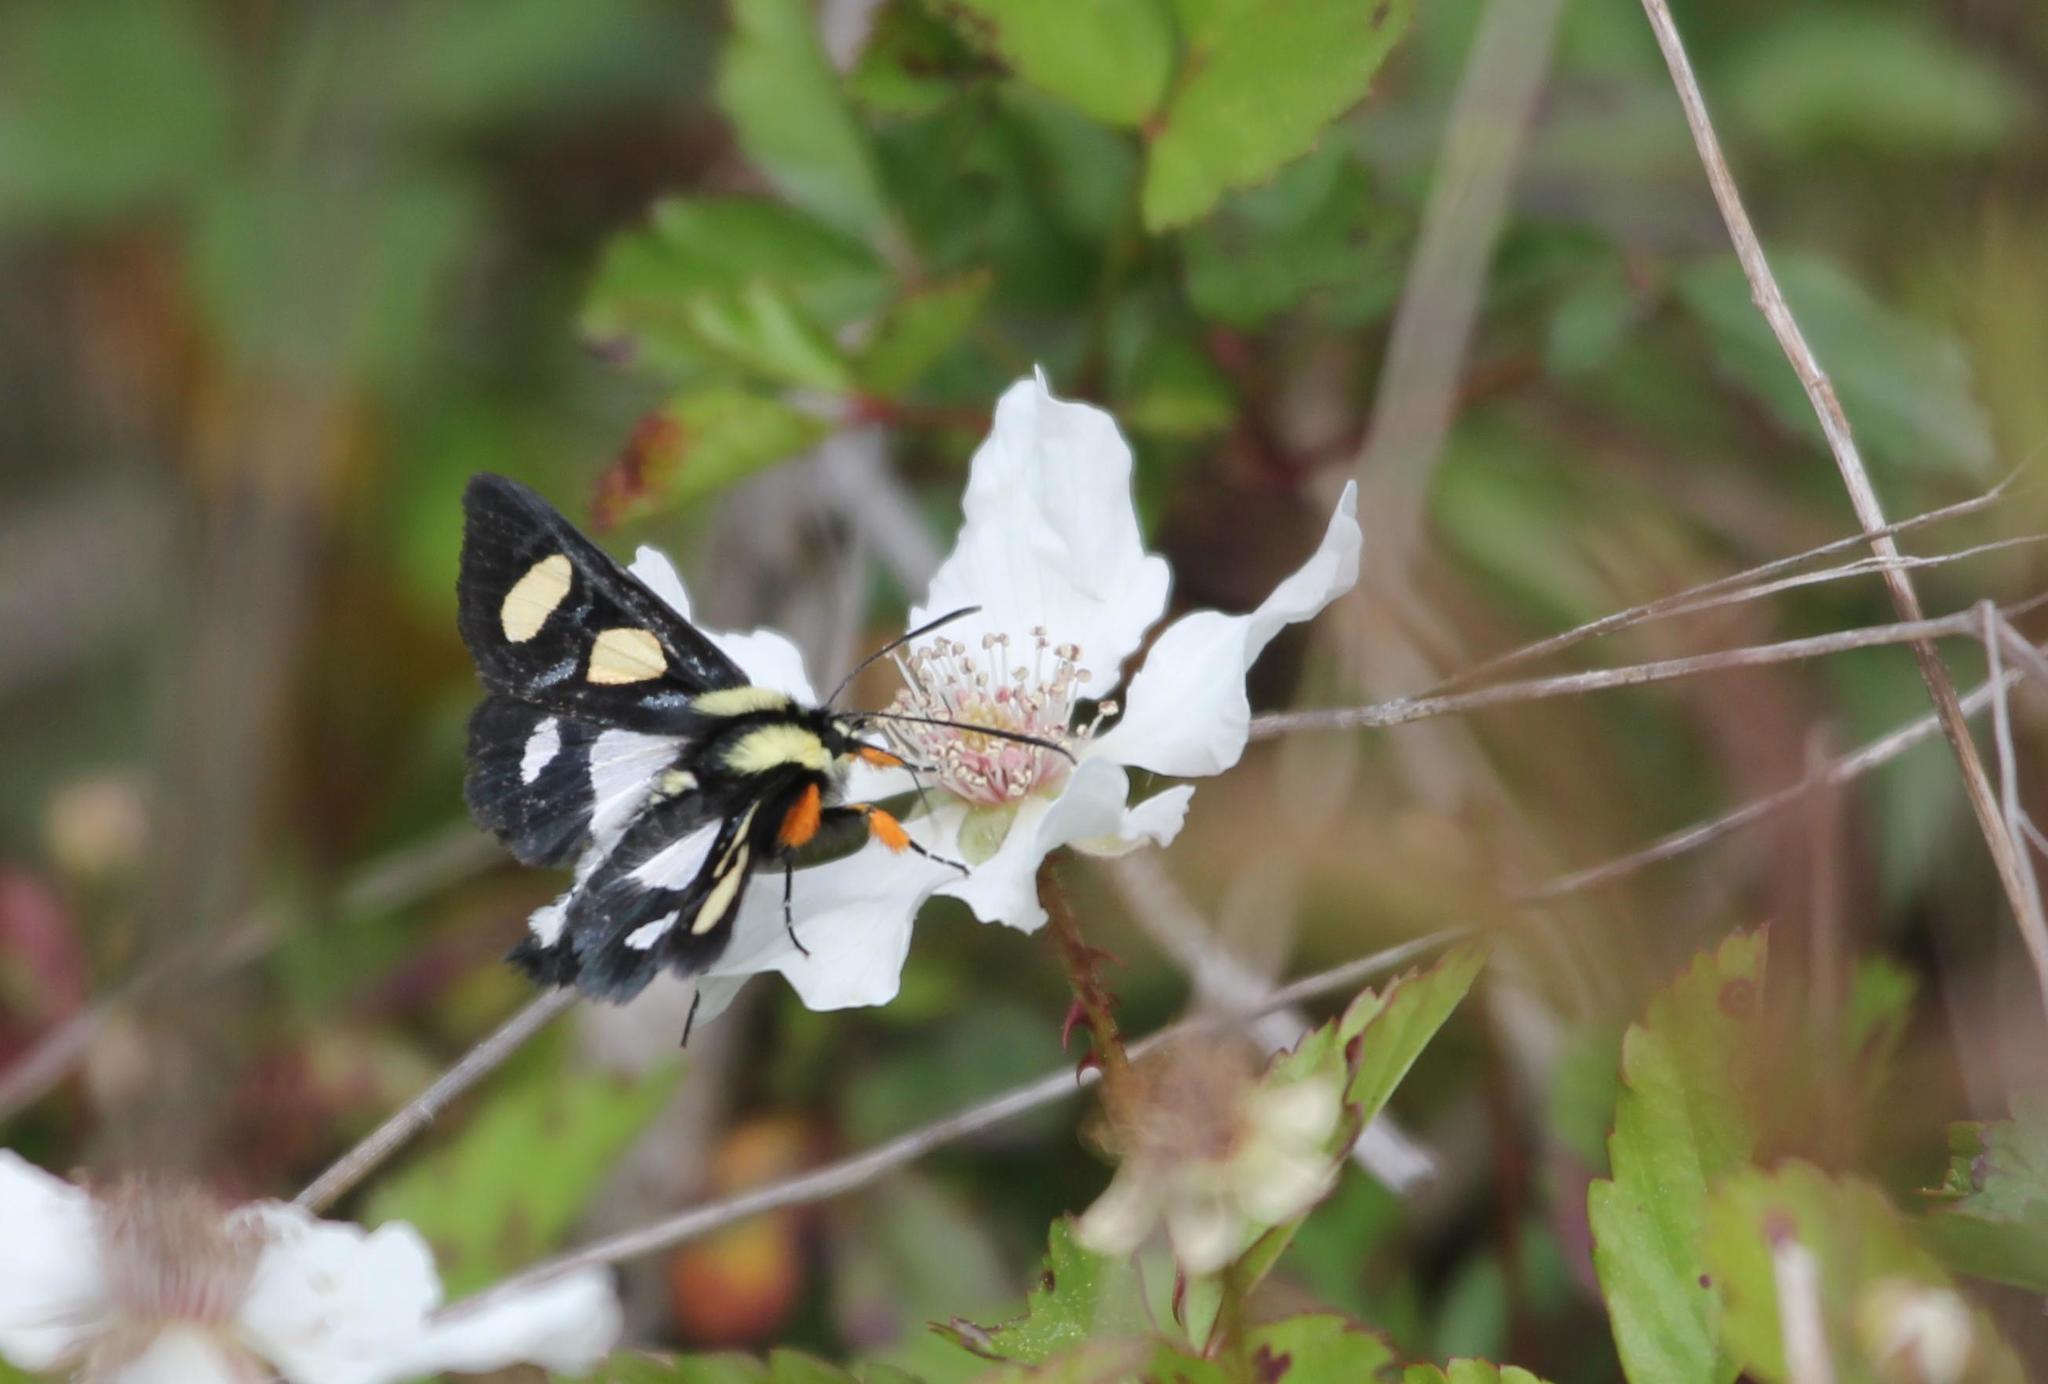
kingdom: Animalia
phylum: Arthropoda
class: Insecta
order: Lepidoptera
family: Noctuidae
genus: Alypia
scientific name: Alypia octomaculata
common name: Eight-spotted forester
